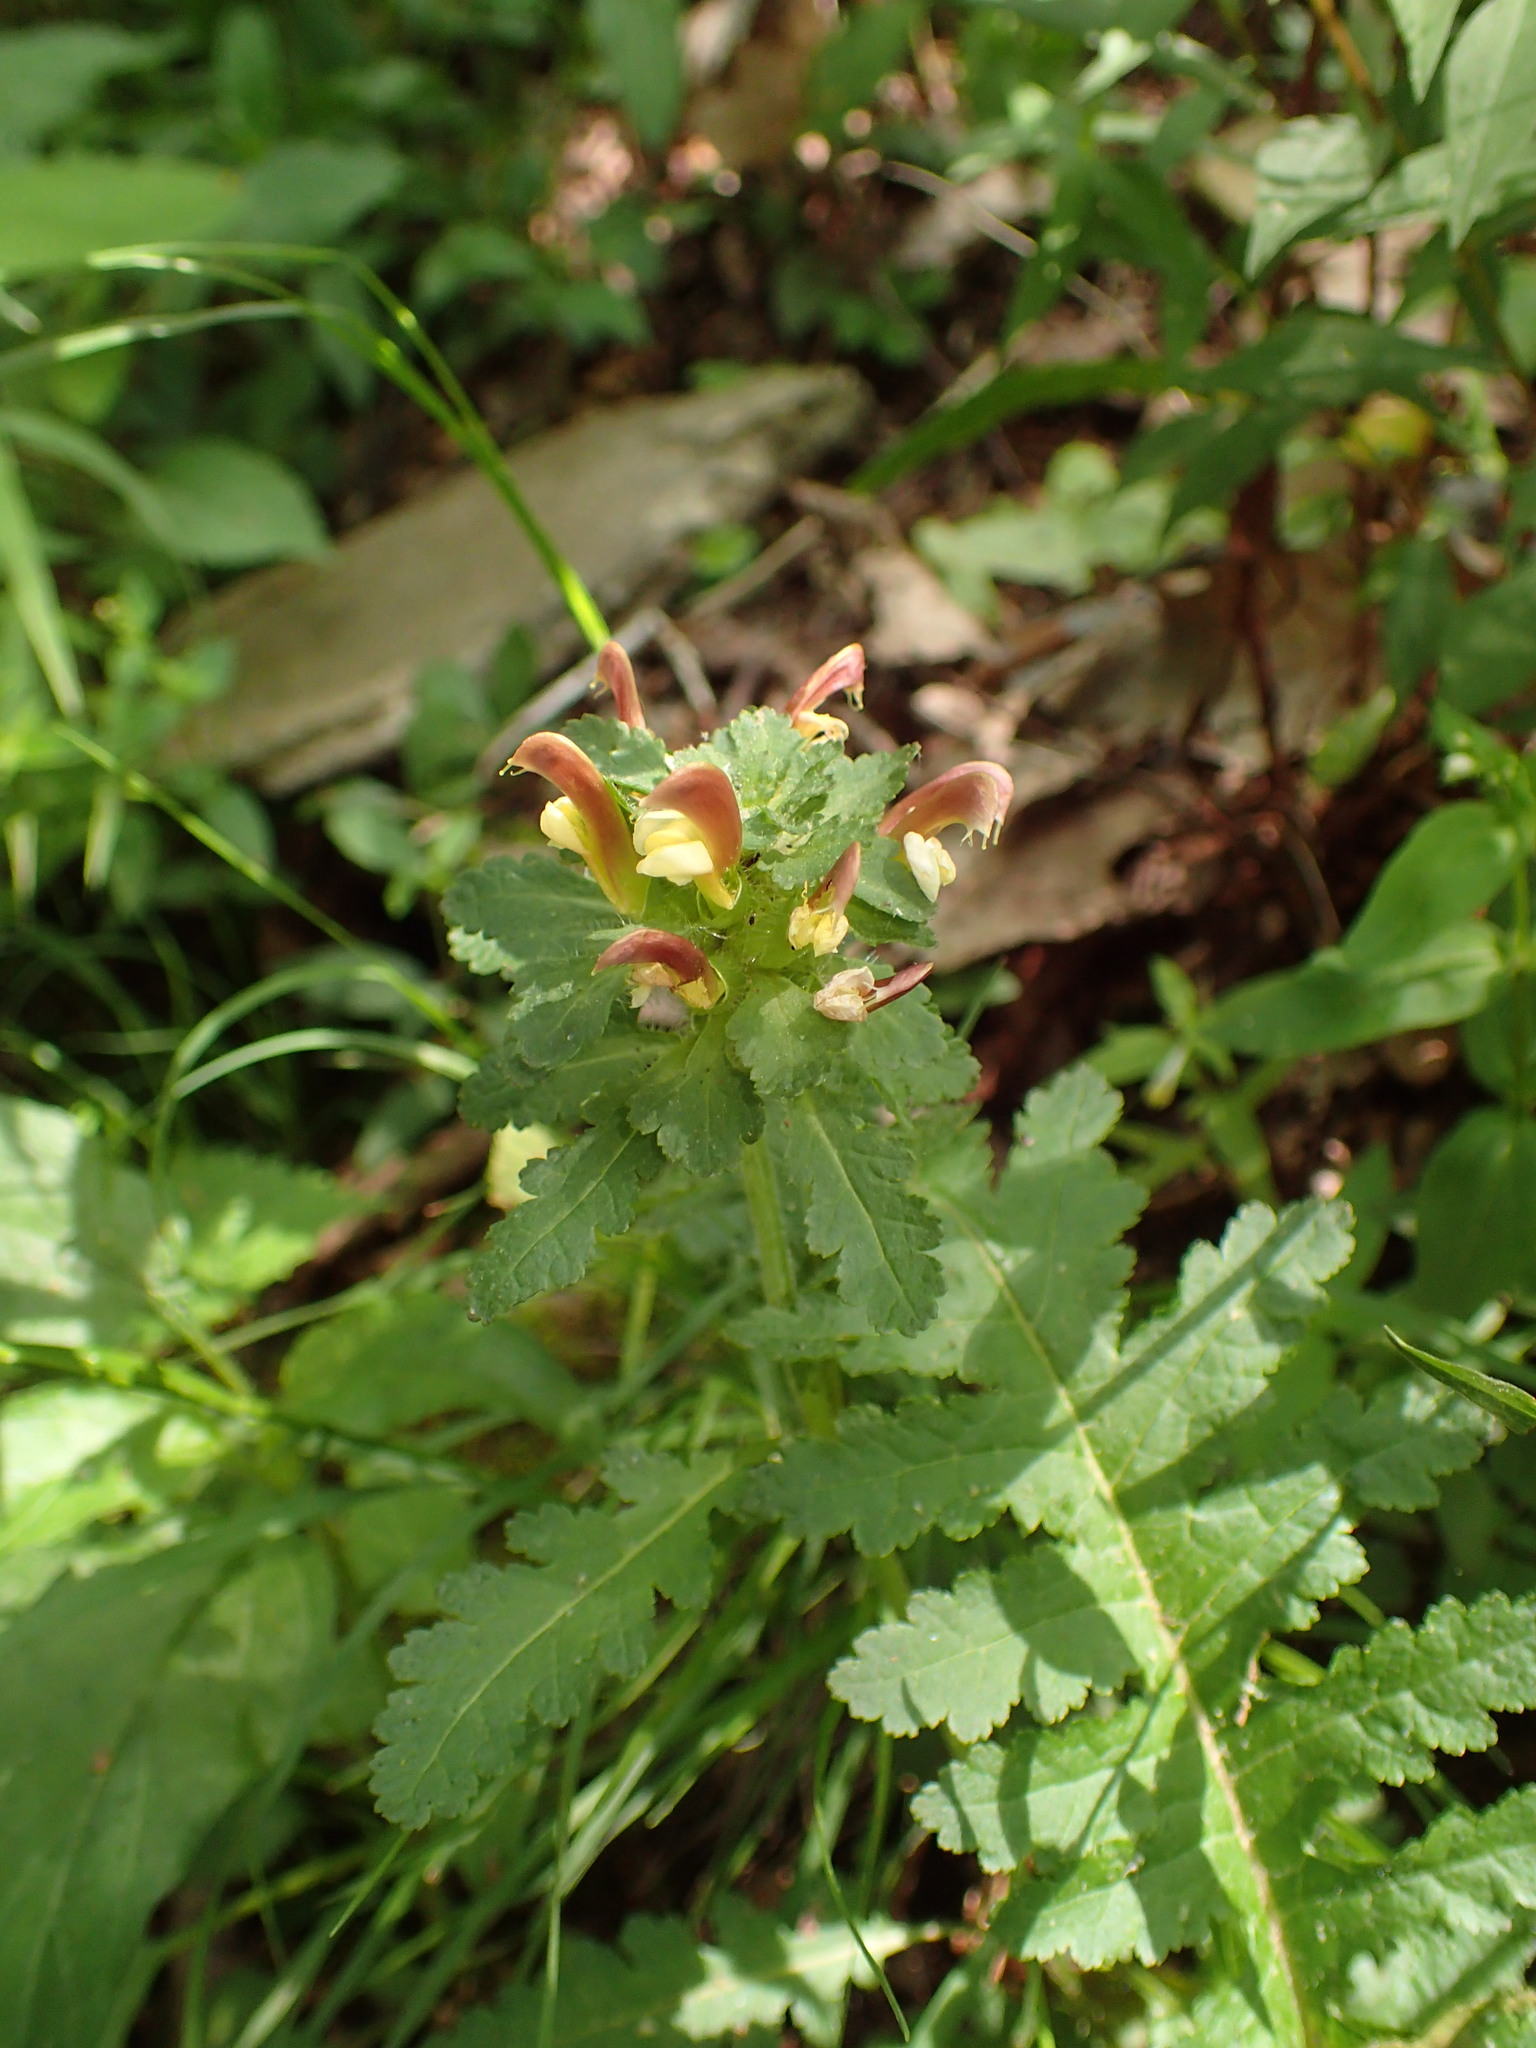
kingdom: Plantae
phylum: Tracheophyta
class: Magnoliopsida
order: Lamiales
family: Orobanchaceae
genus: Pedicularis
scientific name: Pedicularis canadensis
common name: Early lousewort
